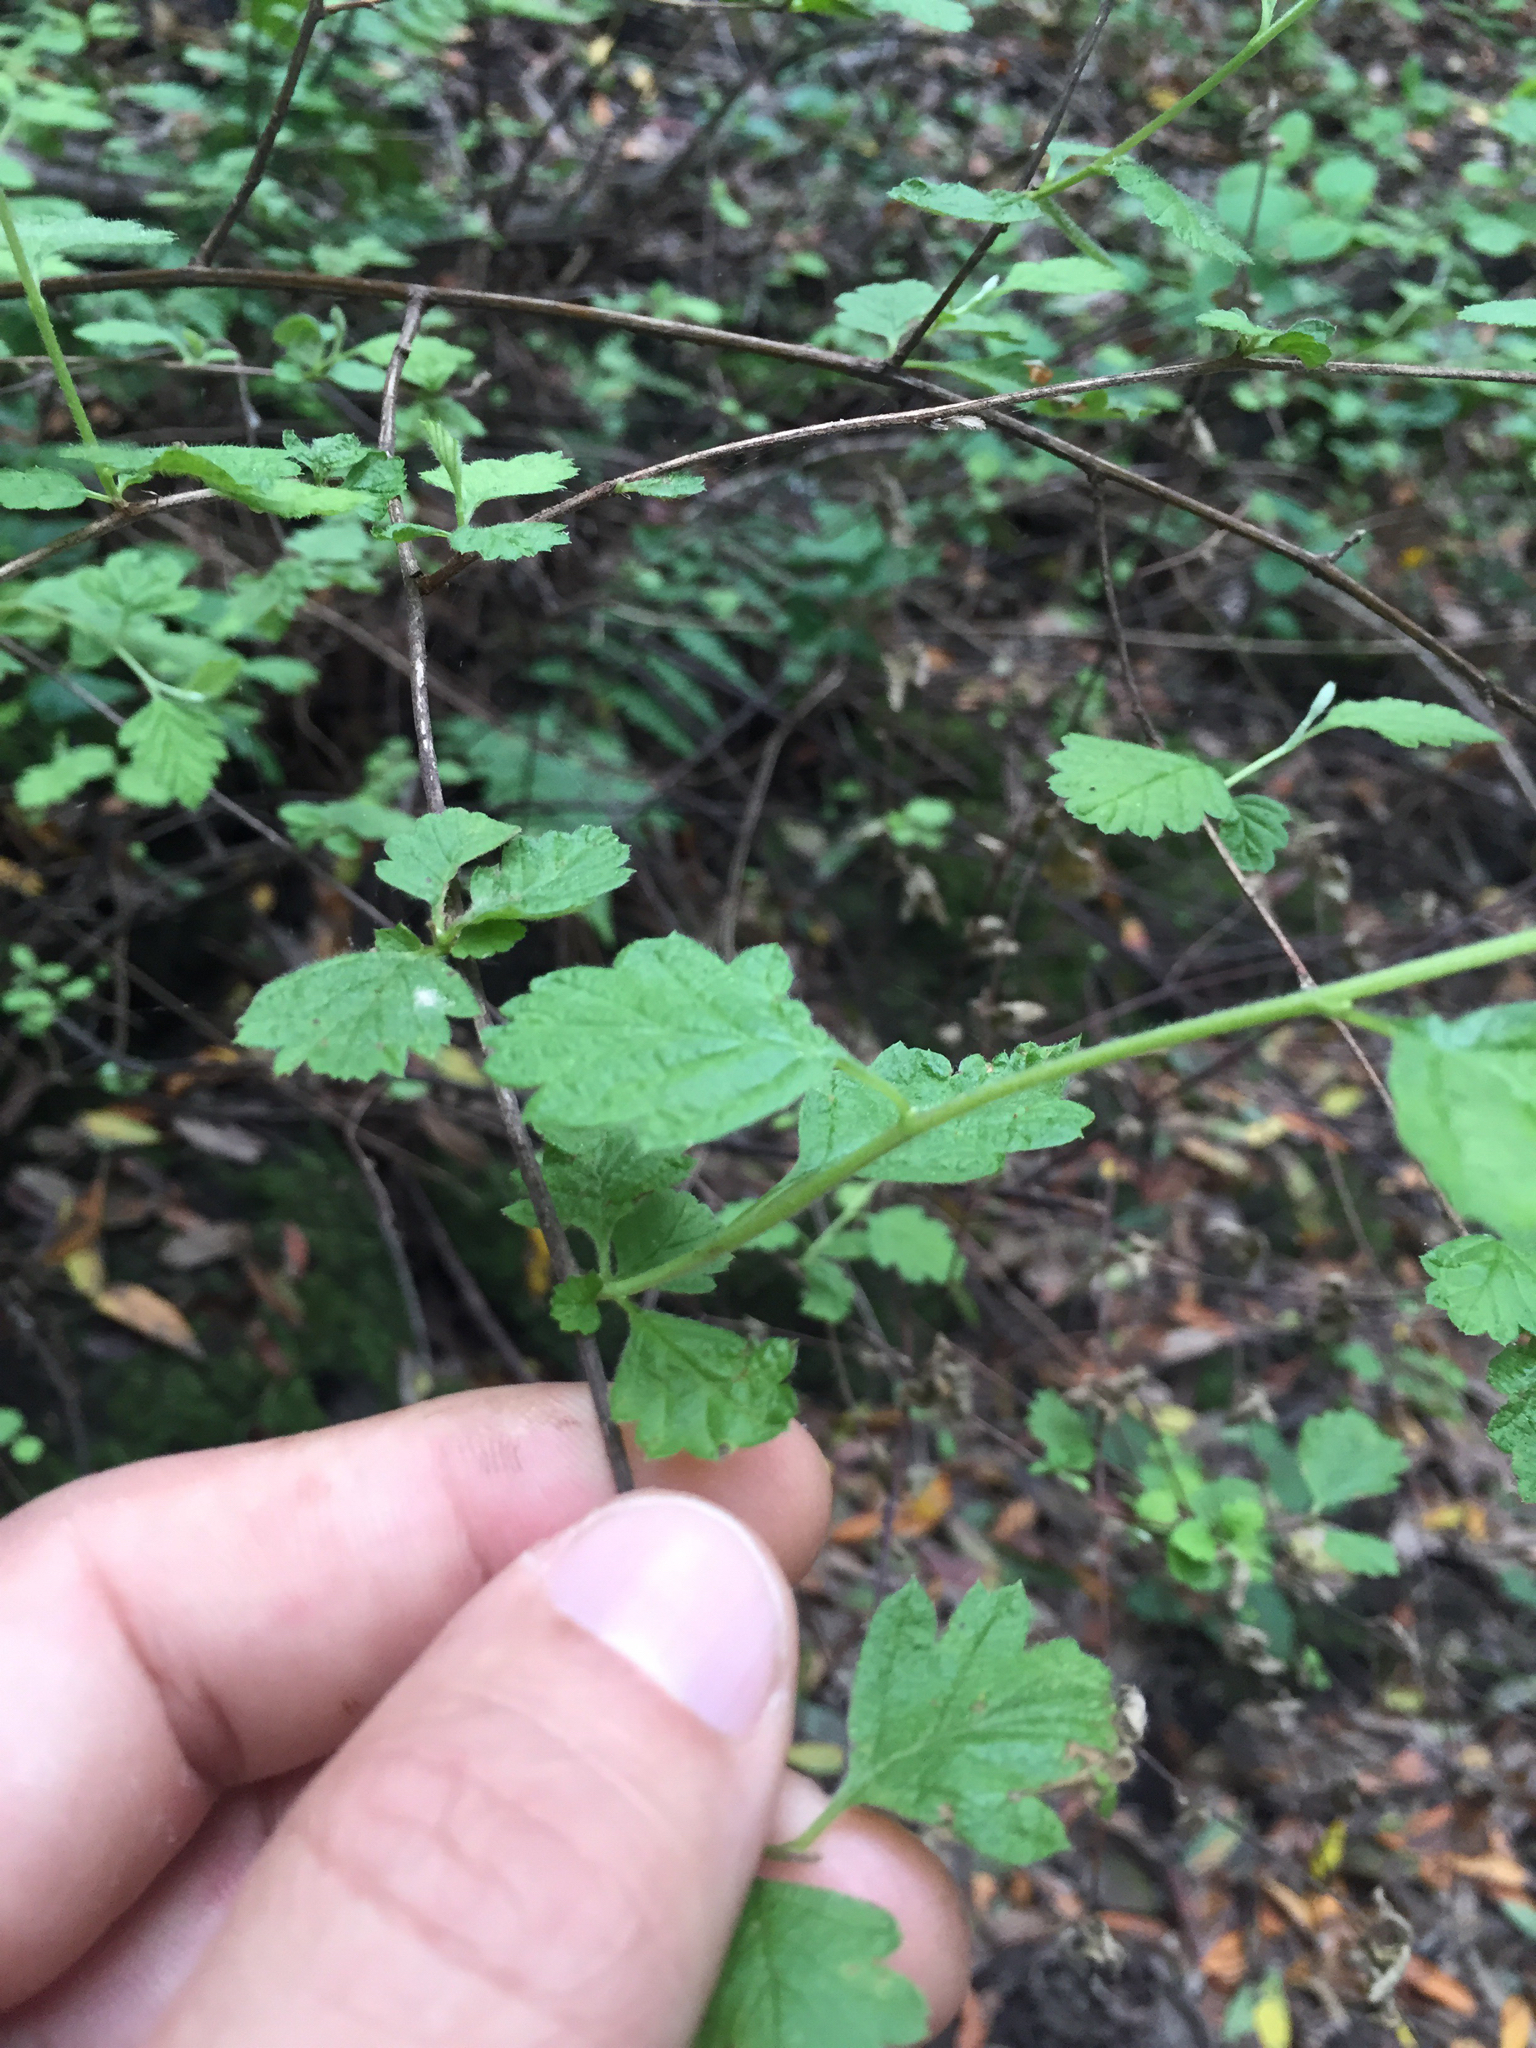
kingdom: Plantae
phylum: Tracheophyta
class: Magnoliopsida
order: Rosales
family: Rosaceae
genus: Holodiscus
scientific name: Holodiscus discolor
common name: Oceanspray
